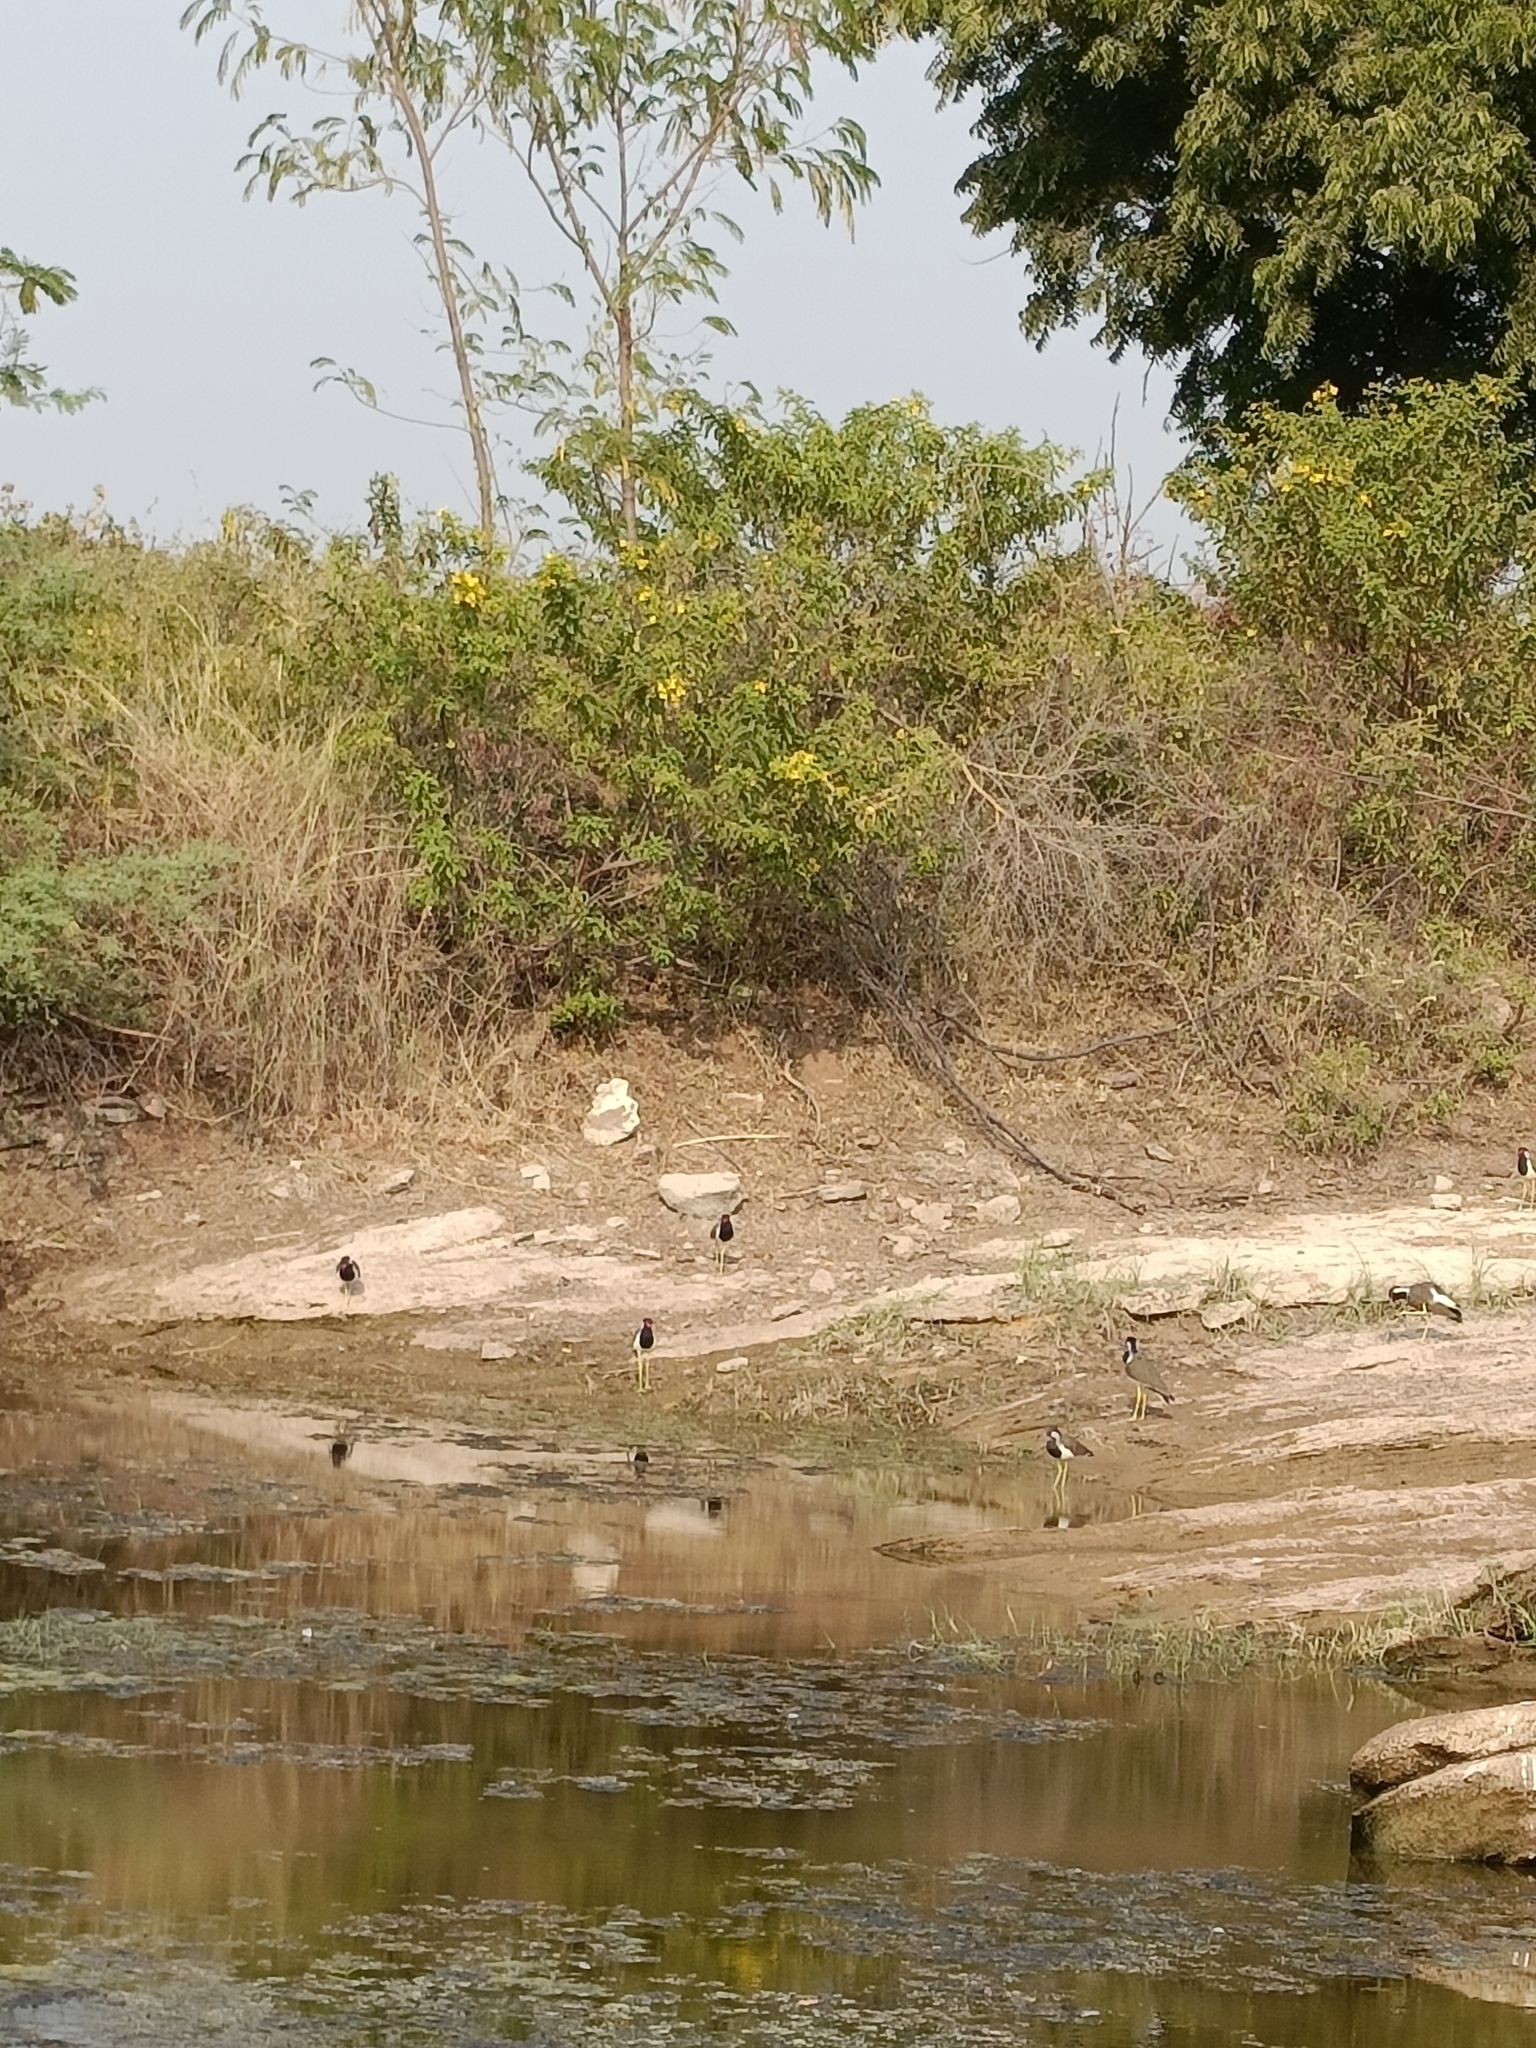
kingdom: Animalia
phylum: Chordata
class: Aves
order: Charadriiformes
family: Charadriidae
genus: Vanellus
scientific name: Vanellus indicus
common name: Red-wattled lapwing
